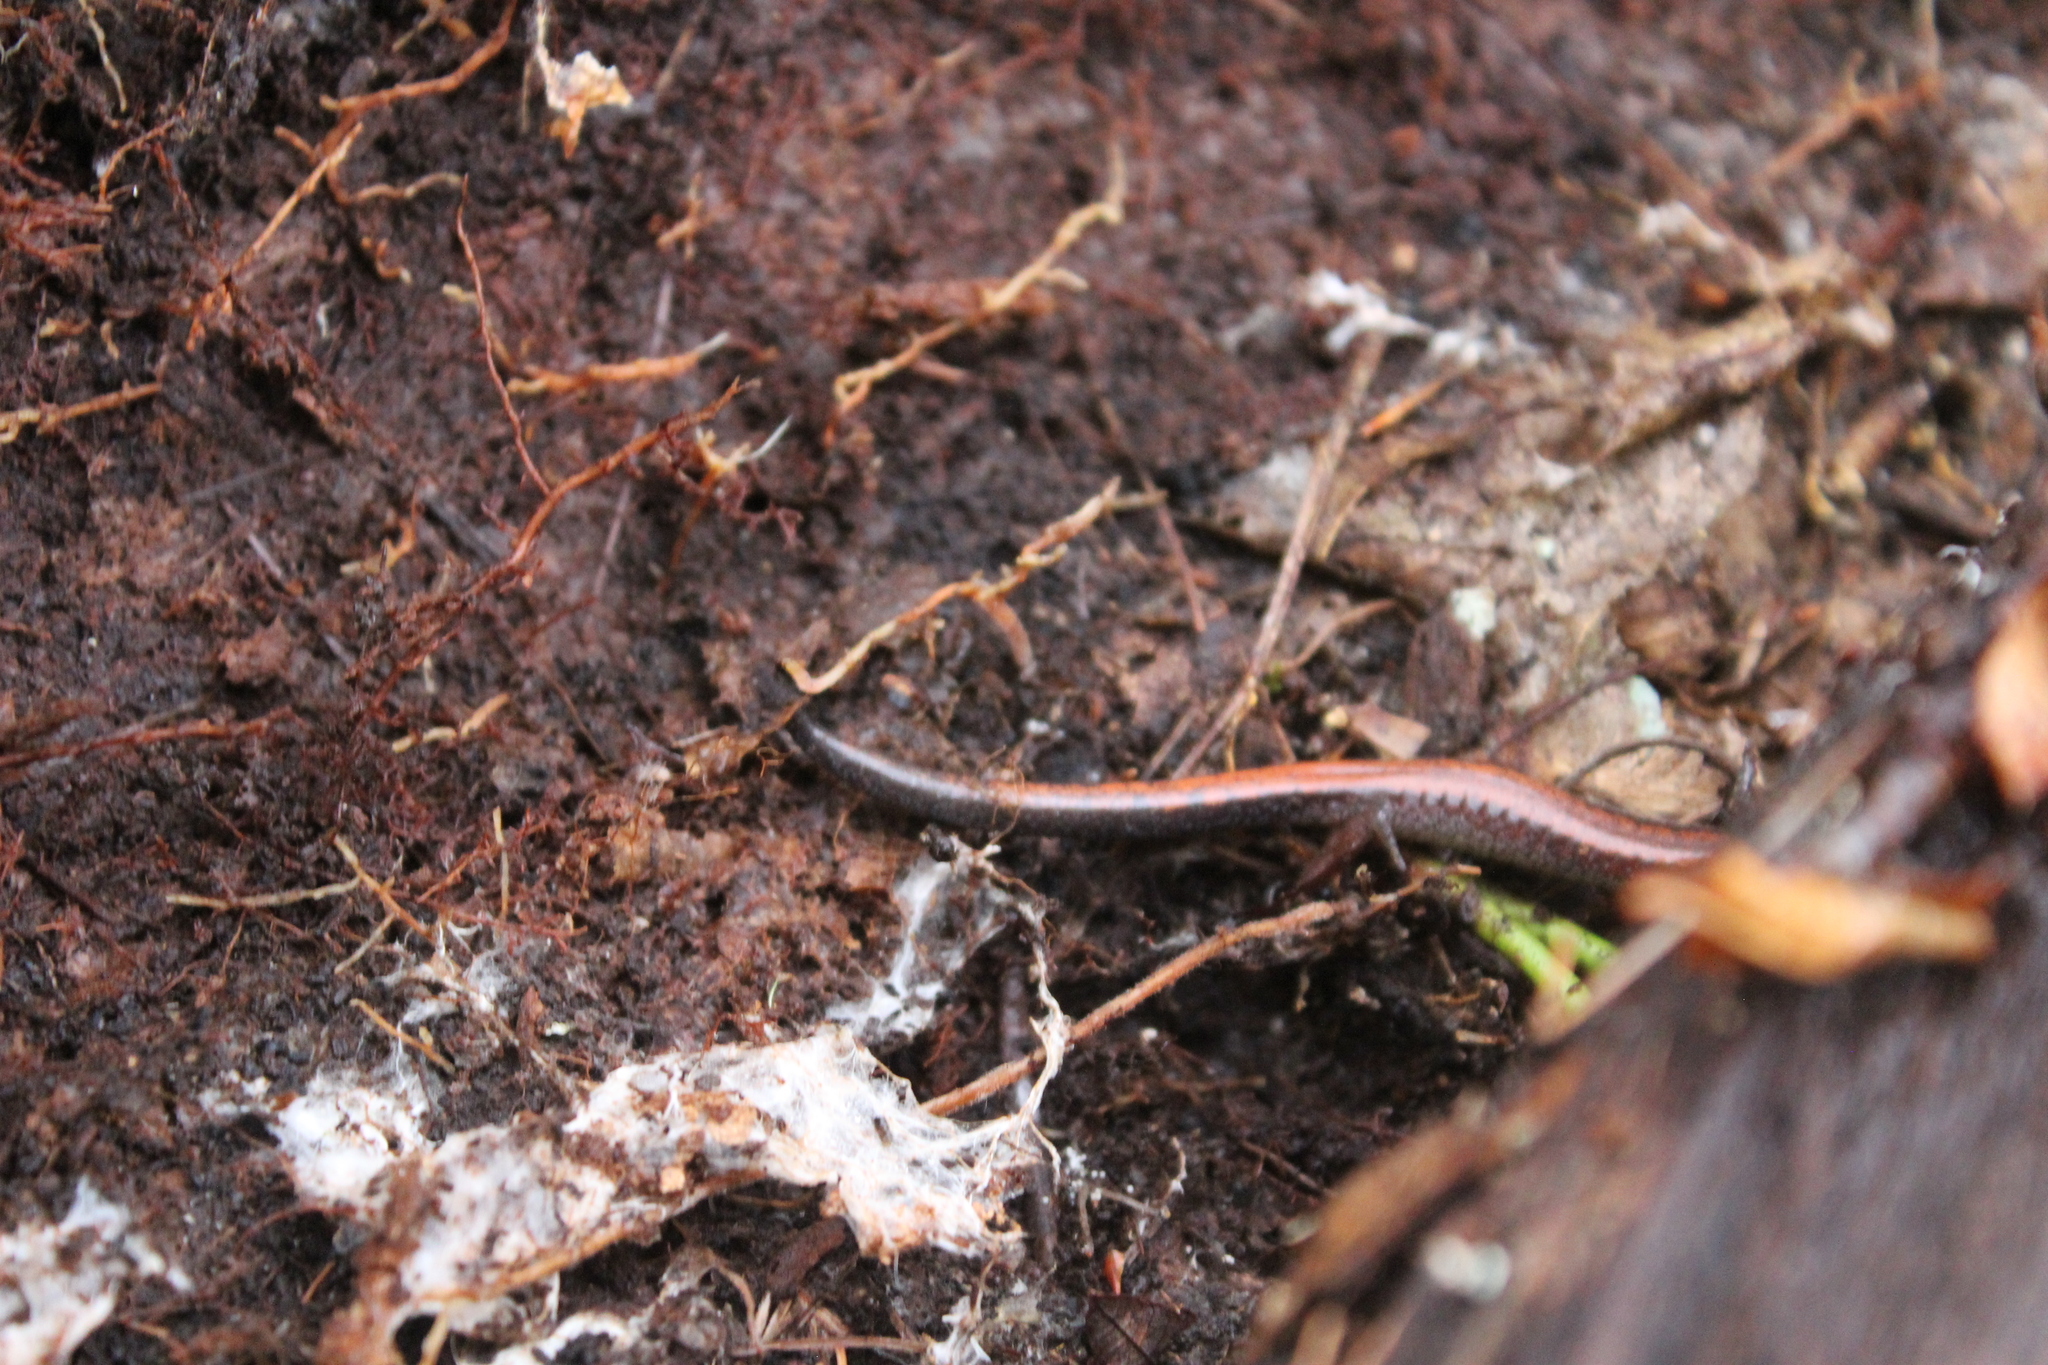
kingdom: Animalia
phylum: Chordata
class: Amphibia
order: Caudata
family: Plethodontidae
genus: Plethodon
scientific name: Plethodon cinereus
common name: Redback salamander
